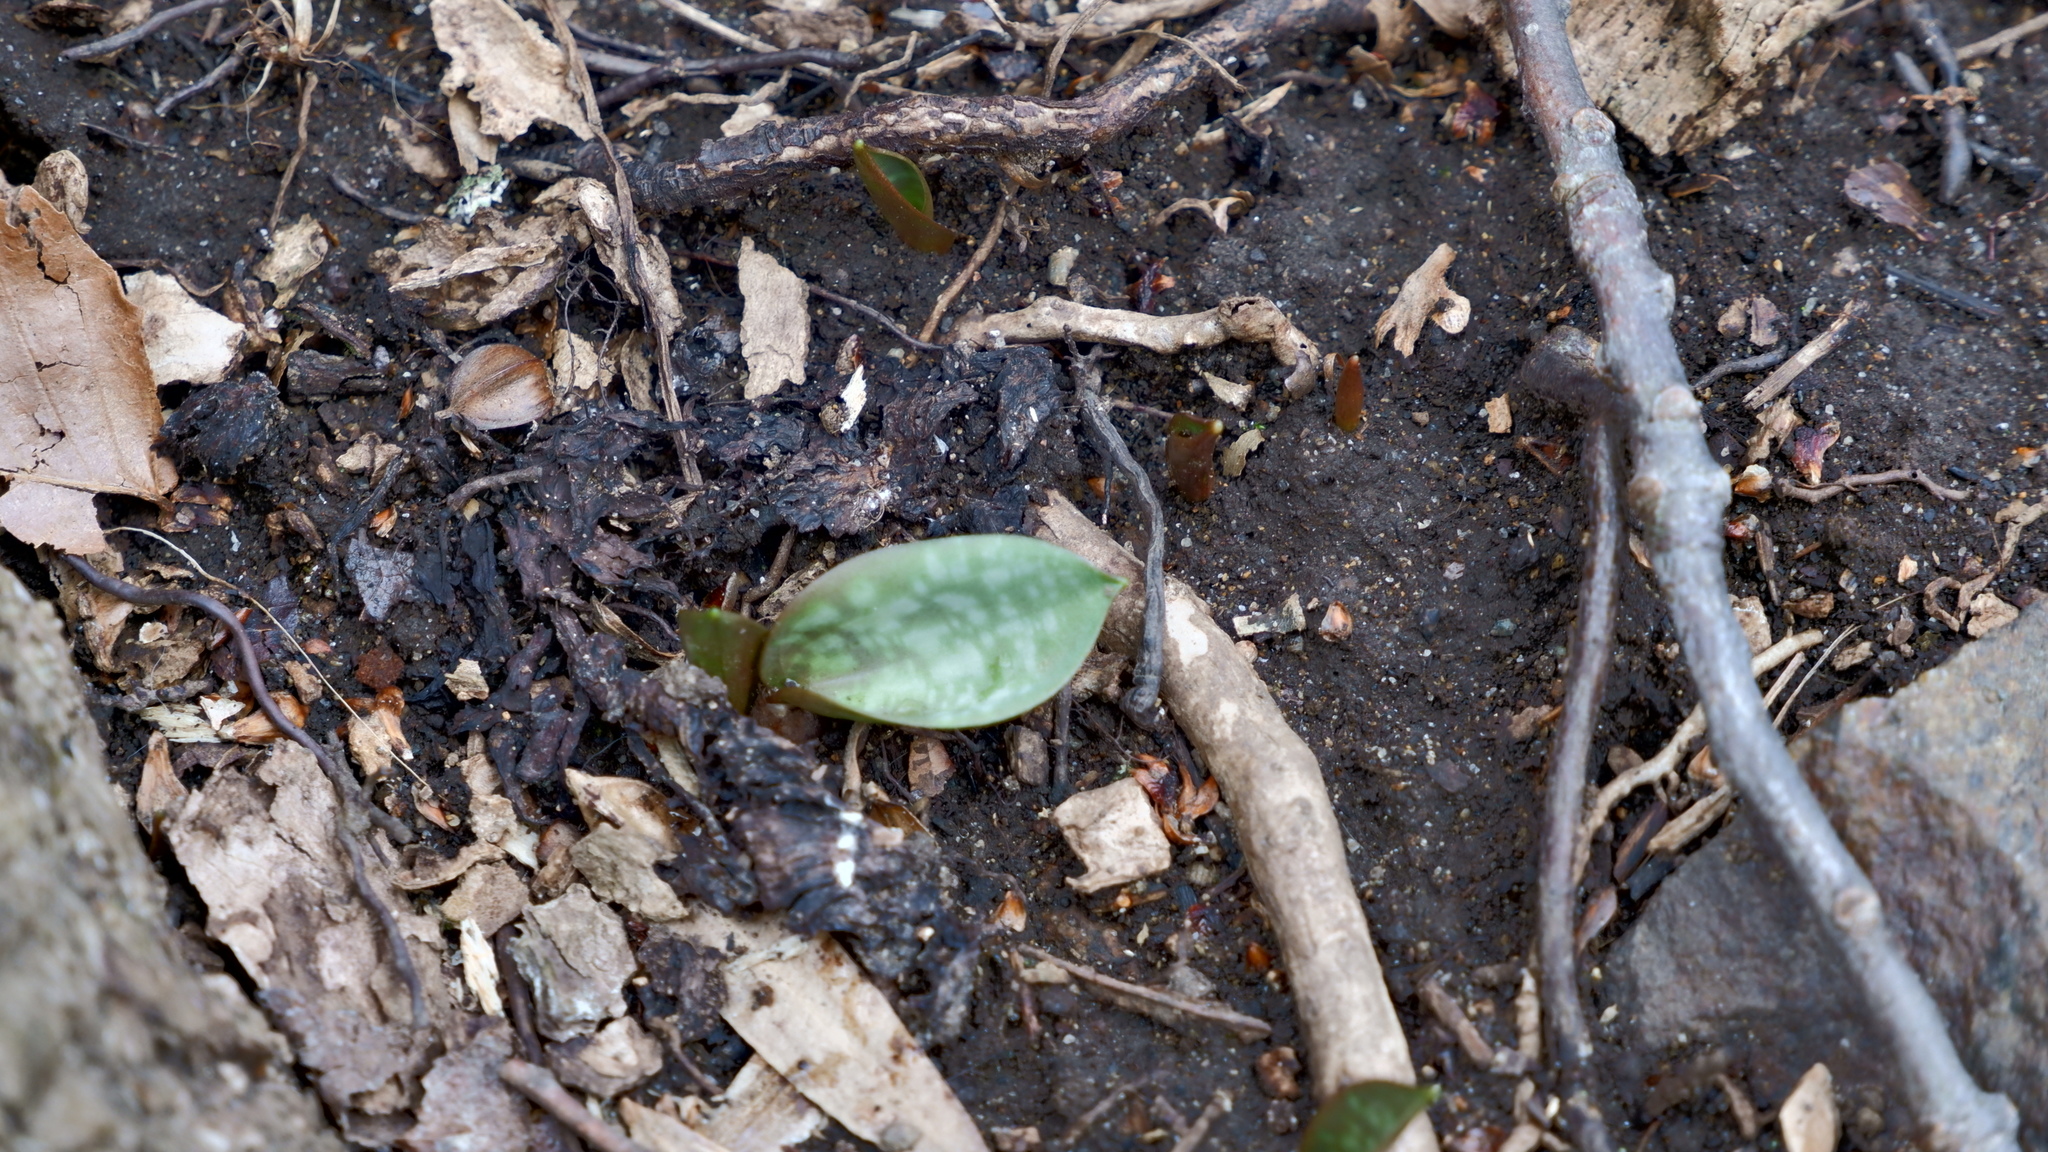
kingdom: Plantae
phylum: Tracheophyta
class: Liliopsida
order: Liliales
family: Liliaceae
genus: Erythronium
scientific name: Erythronium americanum
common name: Yellow adder's-tongue
